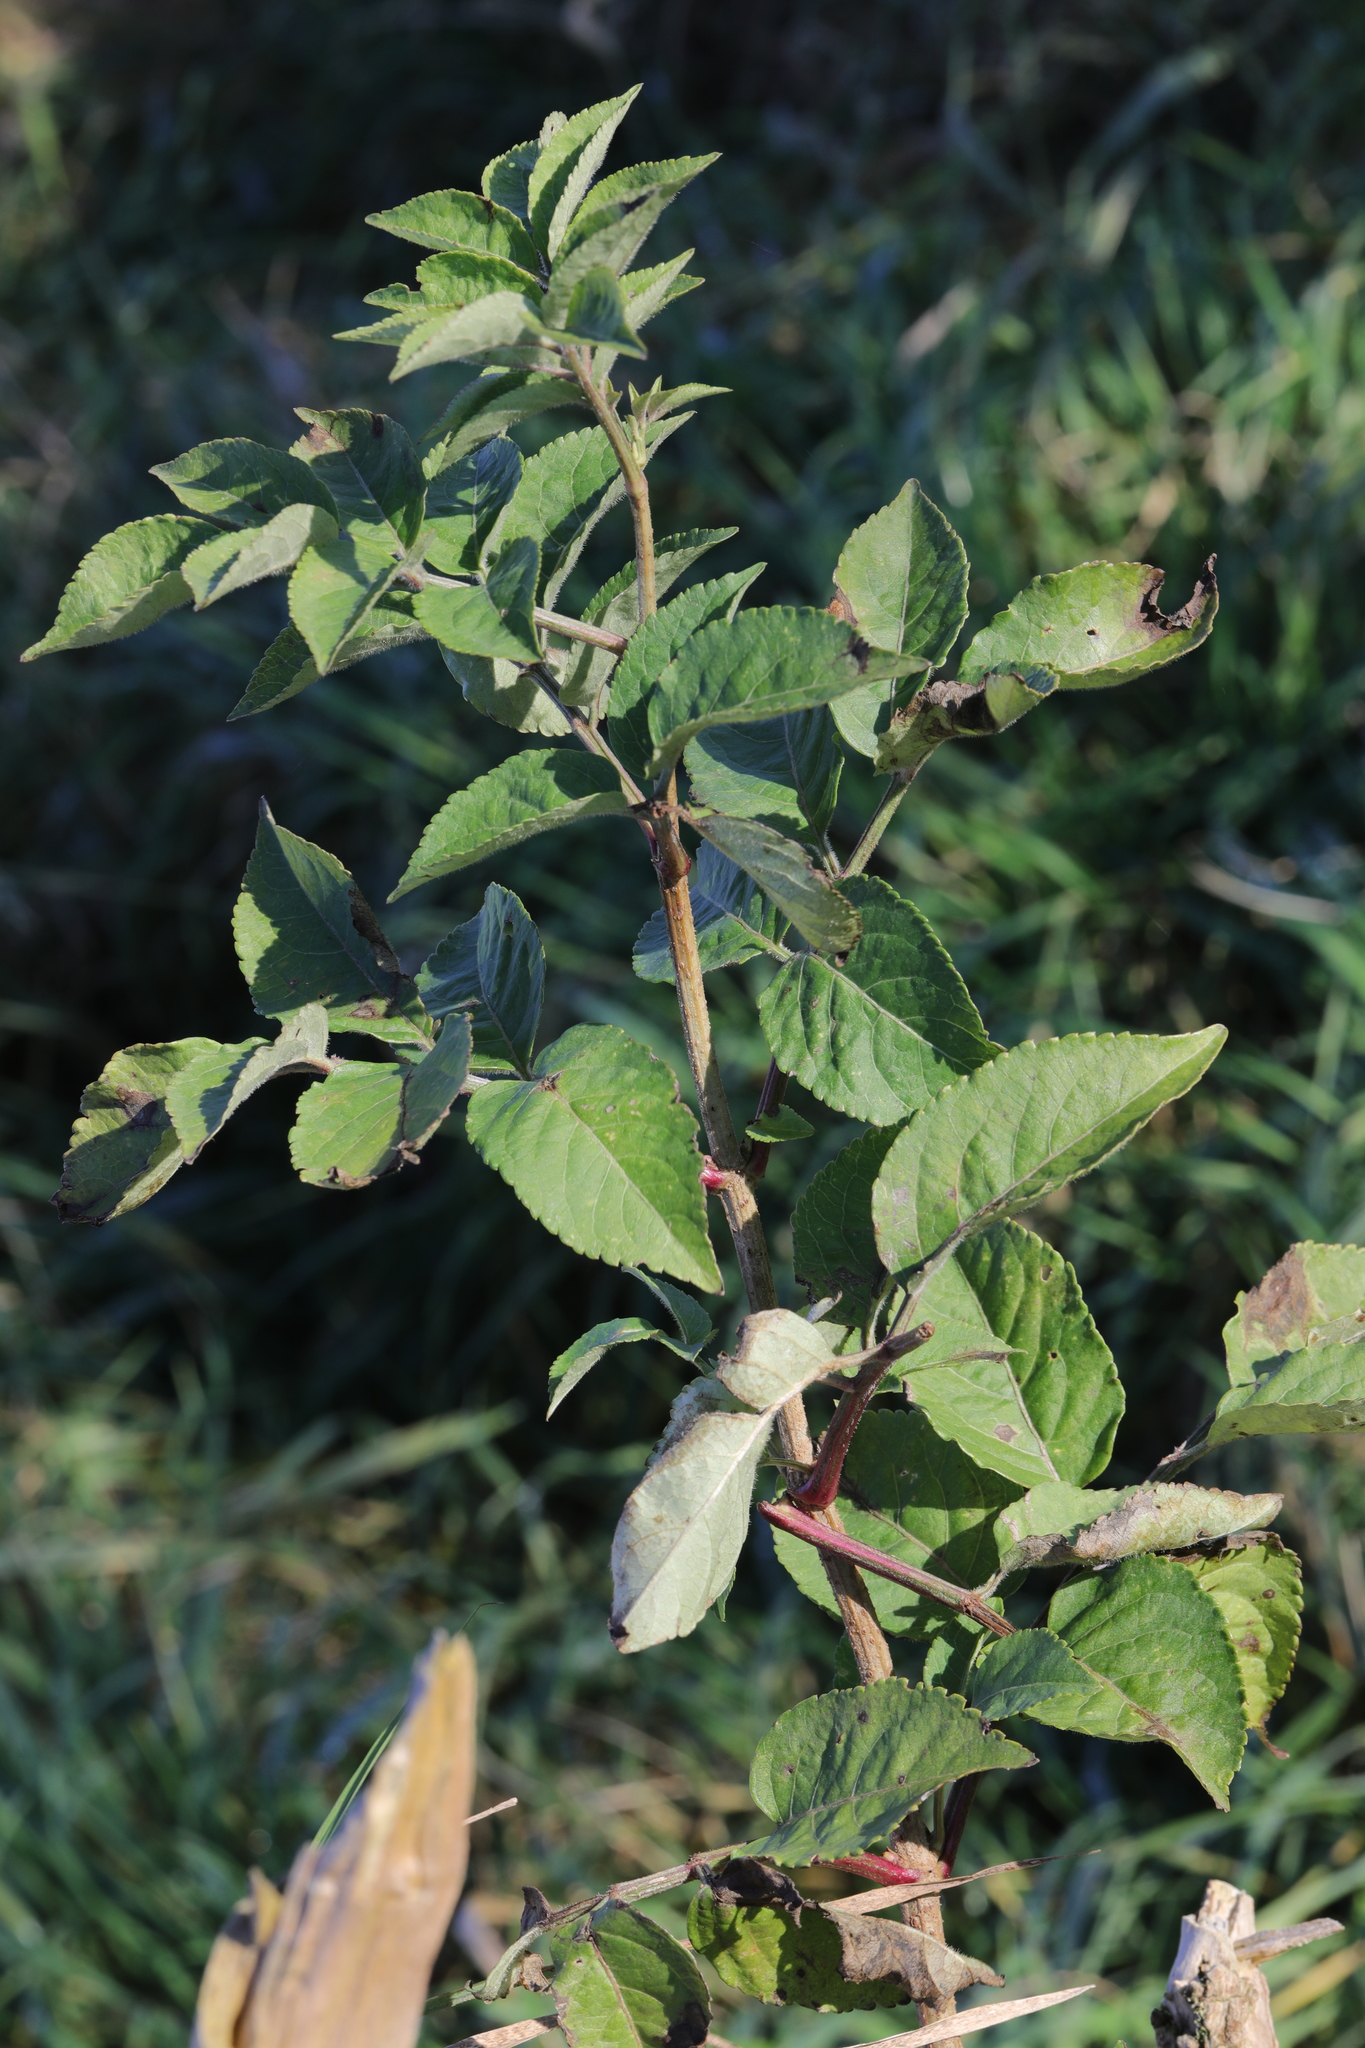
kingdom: Plantae
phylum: Tracheophyta
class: Magnoliopsida
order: Dipsacales
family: Viburnaceae
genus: Sambucus
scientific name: Sambucus nigra
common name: Elder
